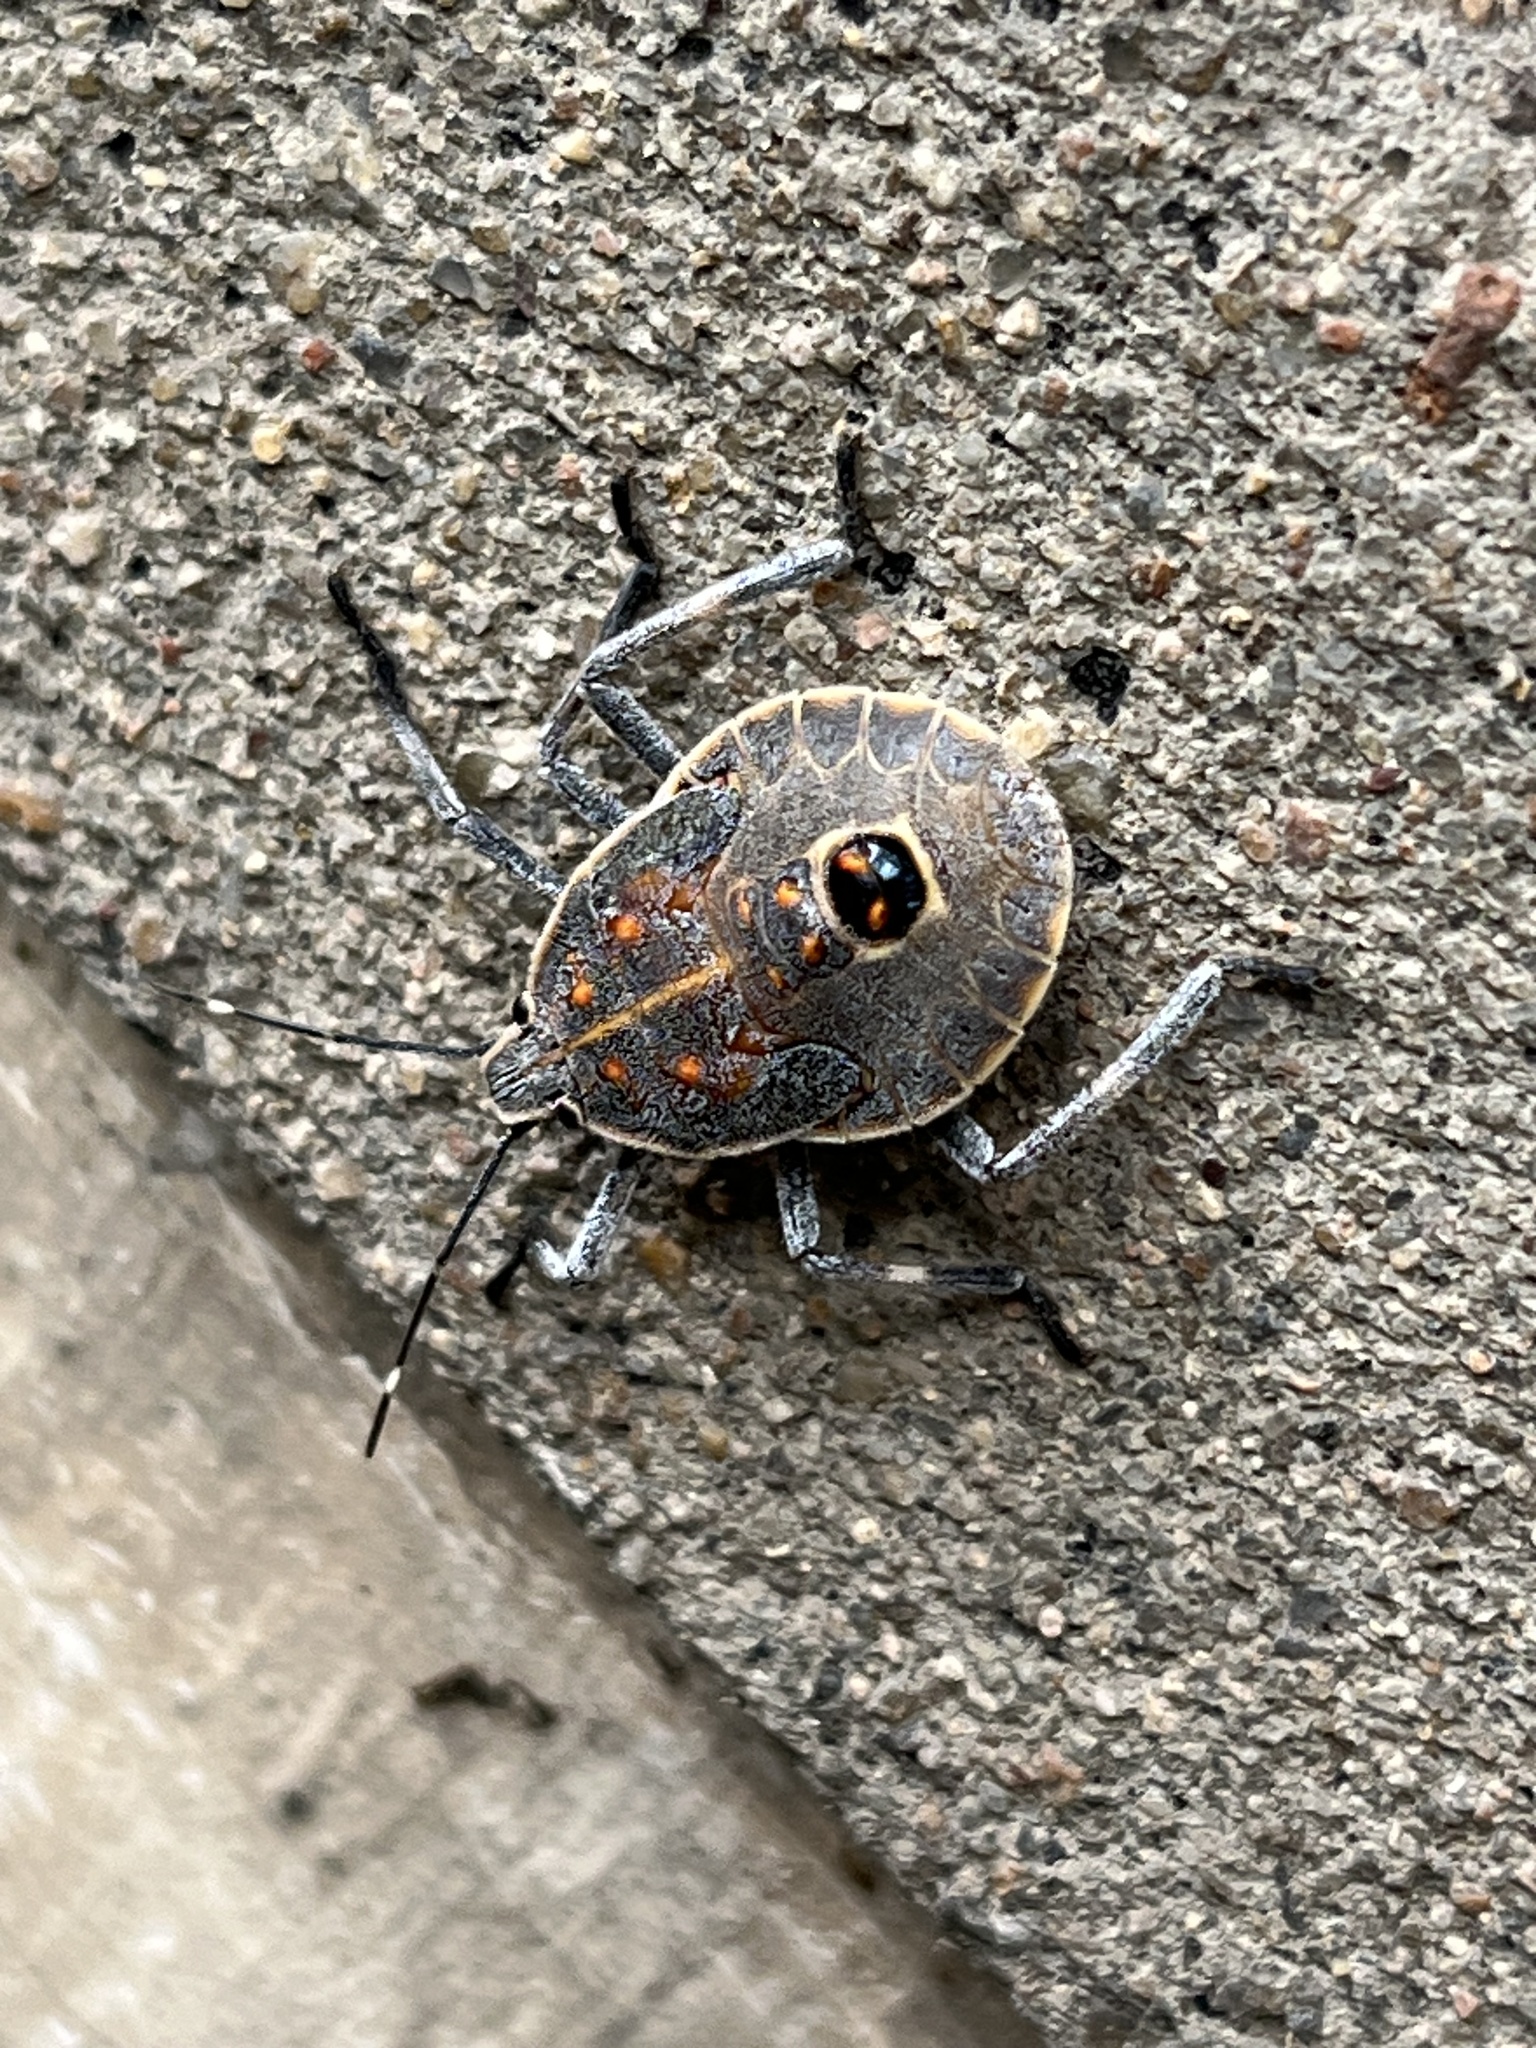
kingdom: Animalia
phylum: Arthropoda
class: Insecta
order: Hemiptera
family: Pentatomidae
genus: Erthesina
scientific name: Erthesina fullo
